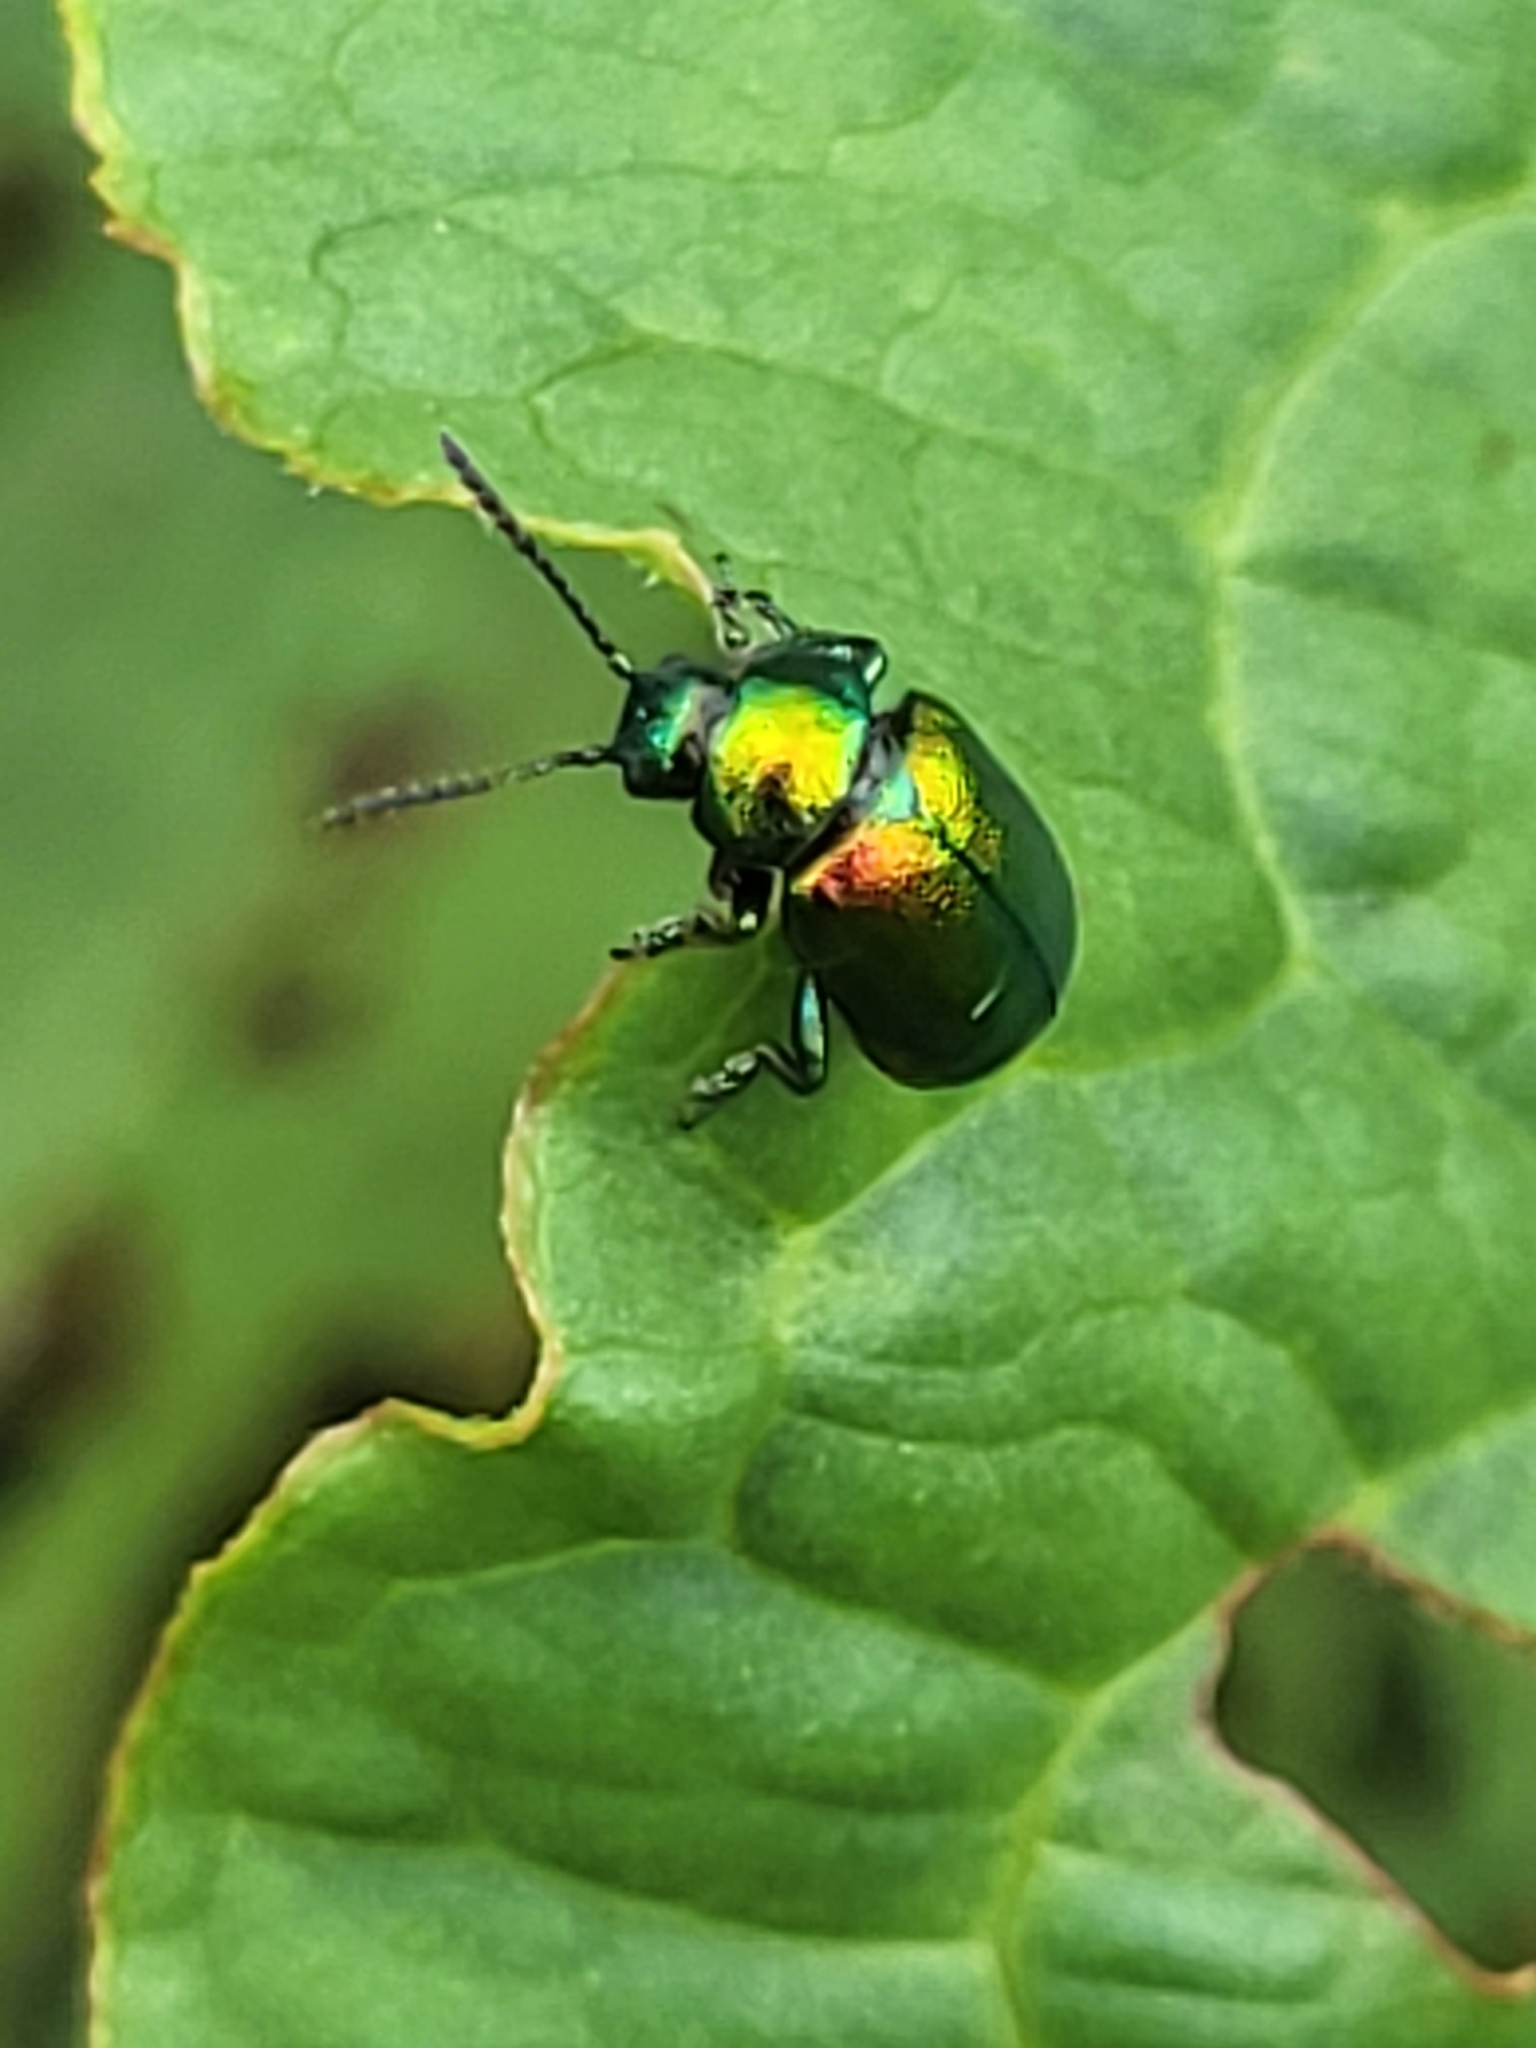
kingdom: Animalia
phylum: Arthropoda
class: Insecta
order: Coleoptera
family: Chrysomelidae
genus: Gastrophysa
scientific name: Gastrophysa viridula
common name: Green dock beetle
